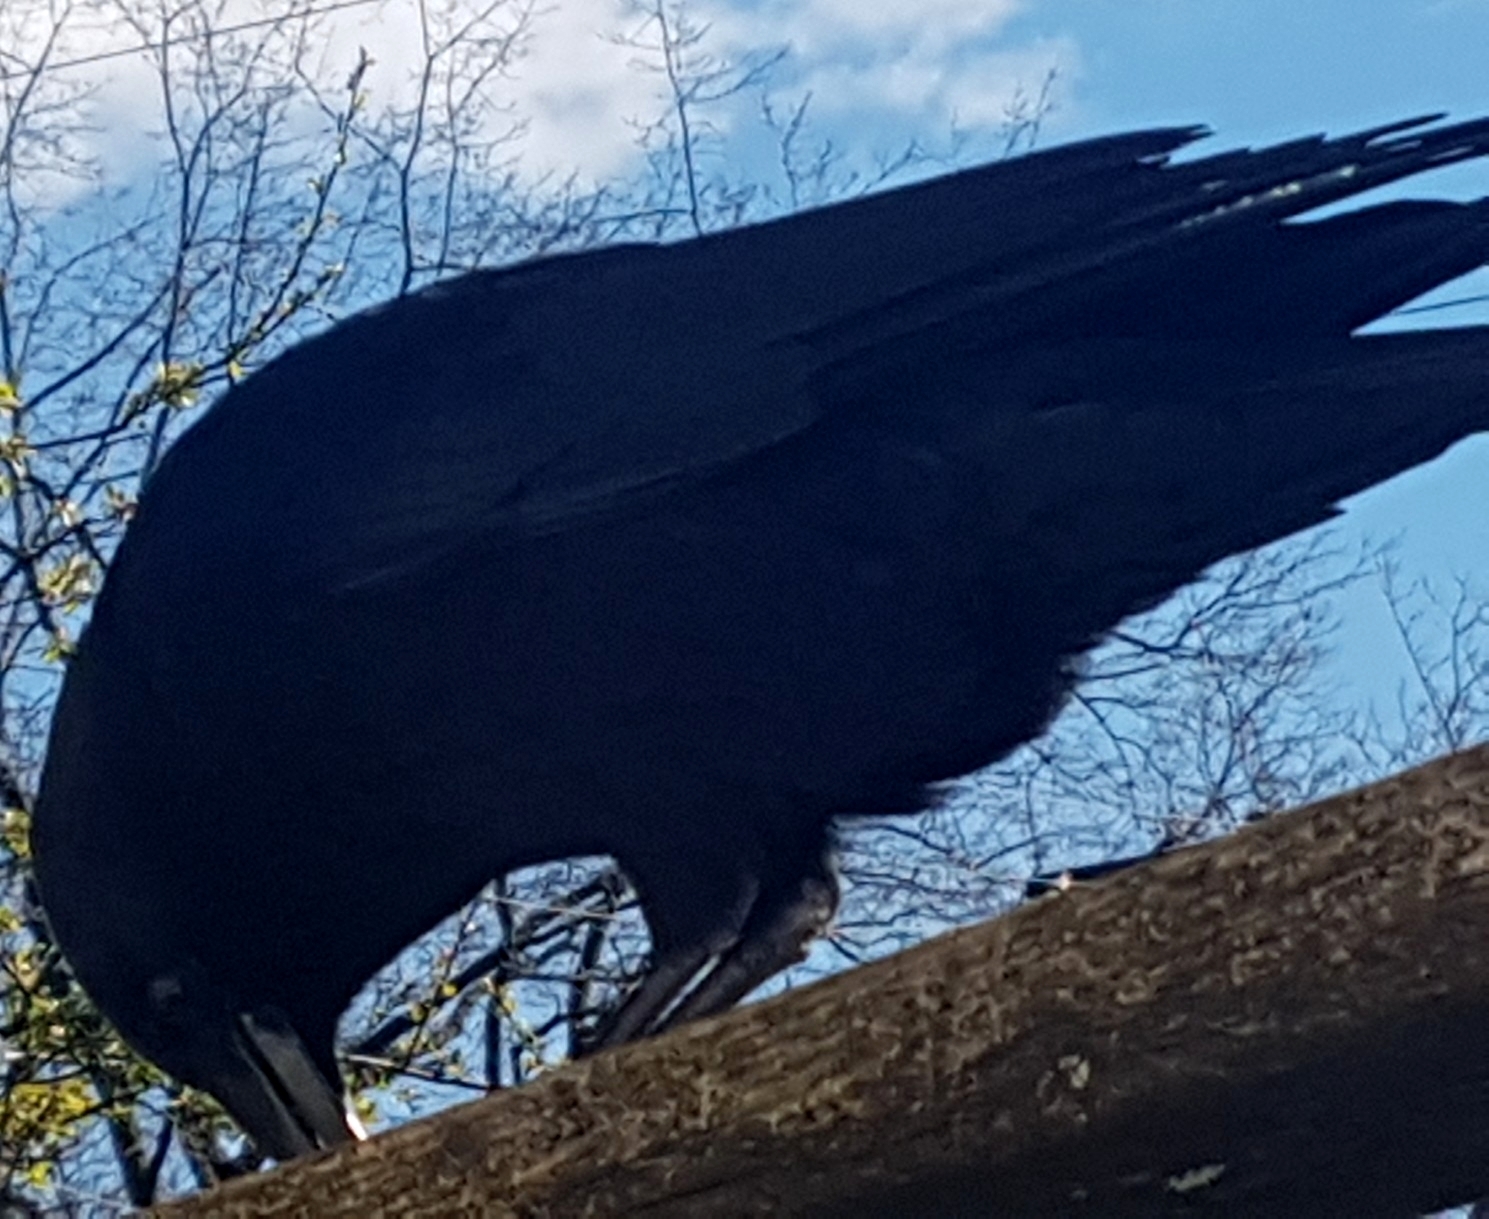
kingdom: Animalia
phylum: Chordata
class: Aves
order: Passeriformes
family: Corvidae
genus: Corvus
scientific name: Corvus brachyrhynchos
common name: American crow
